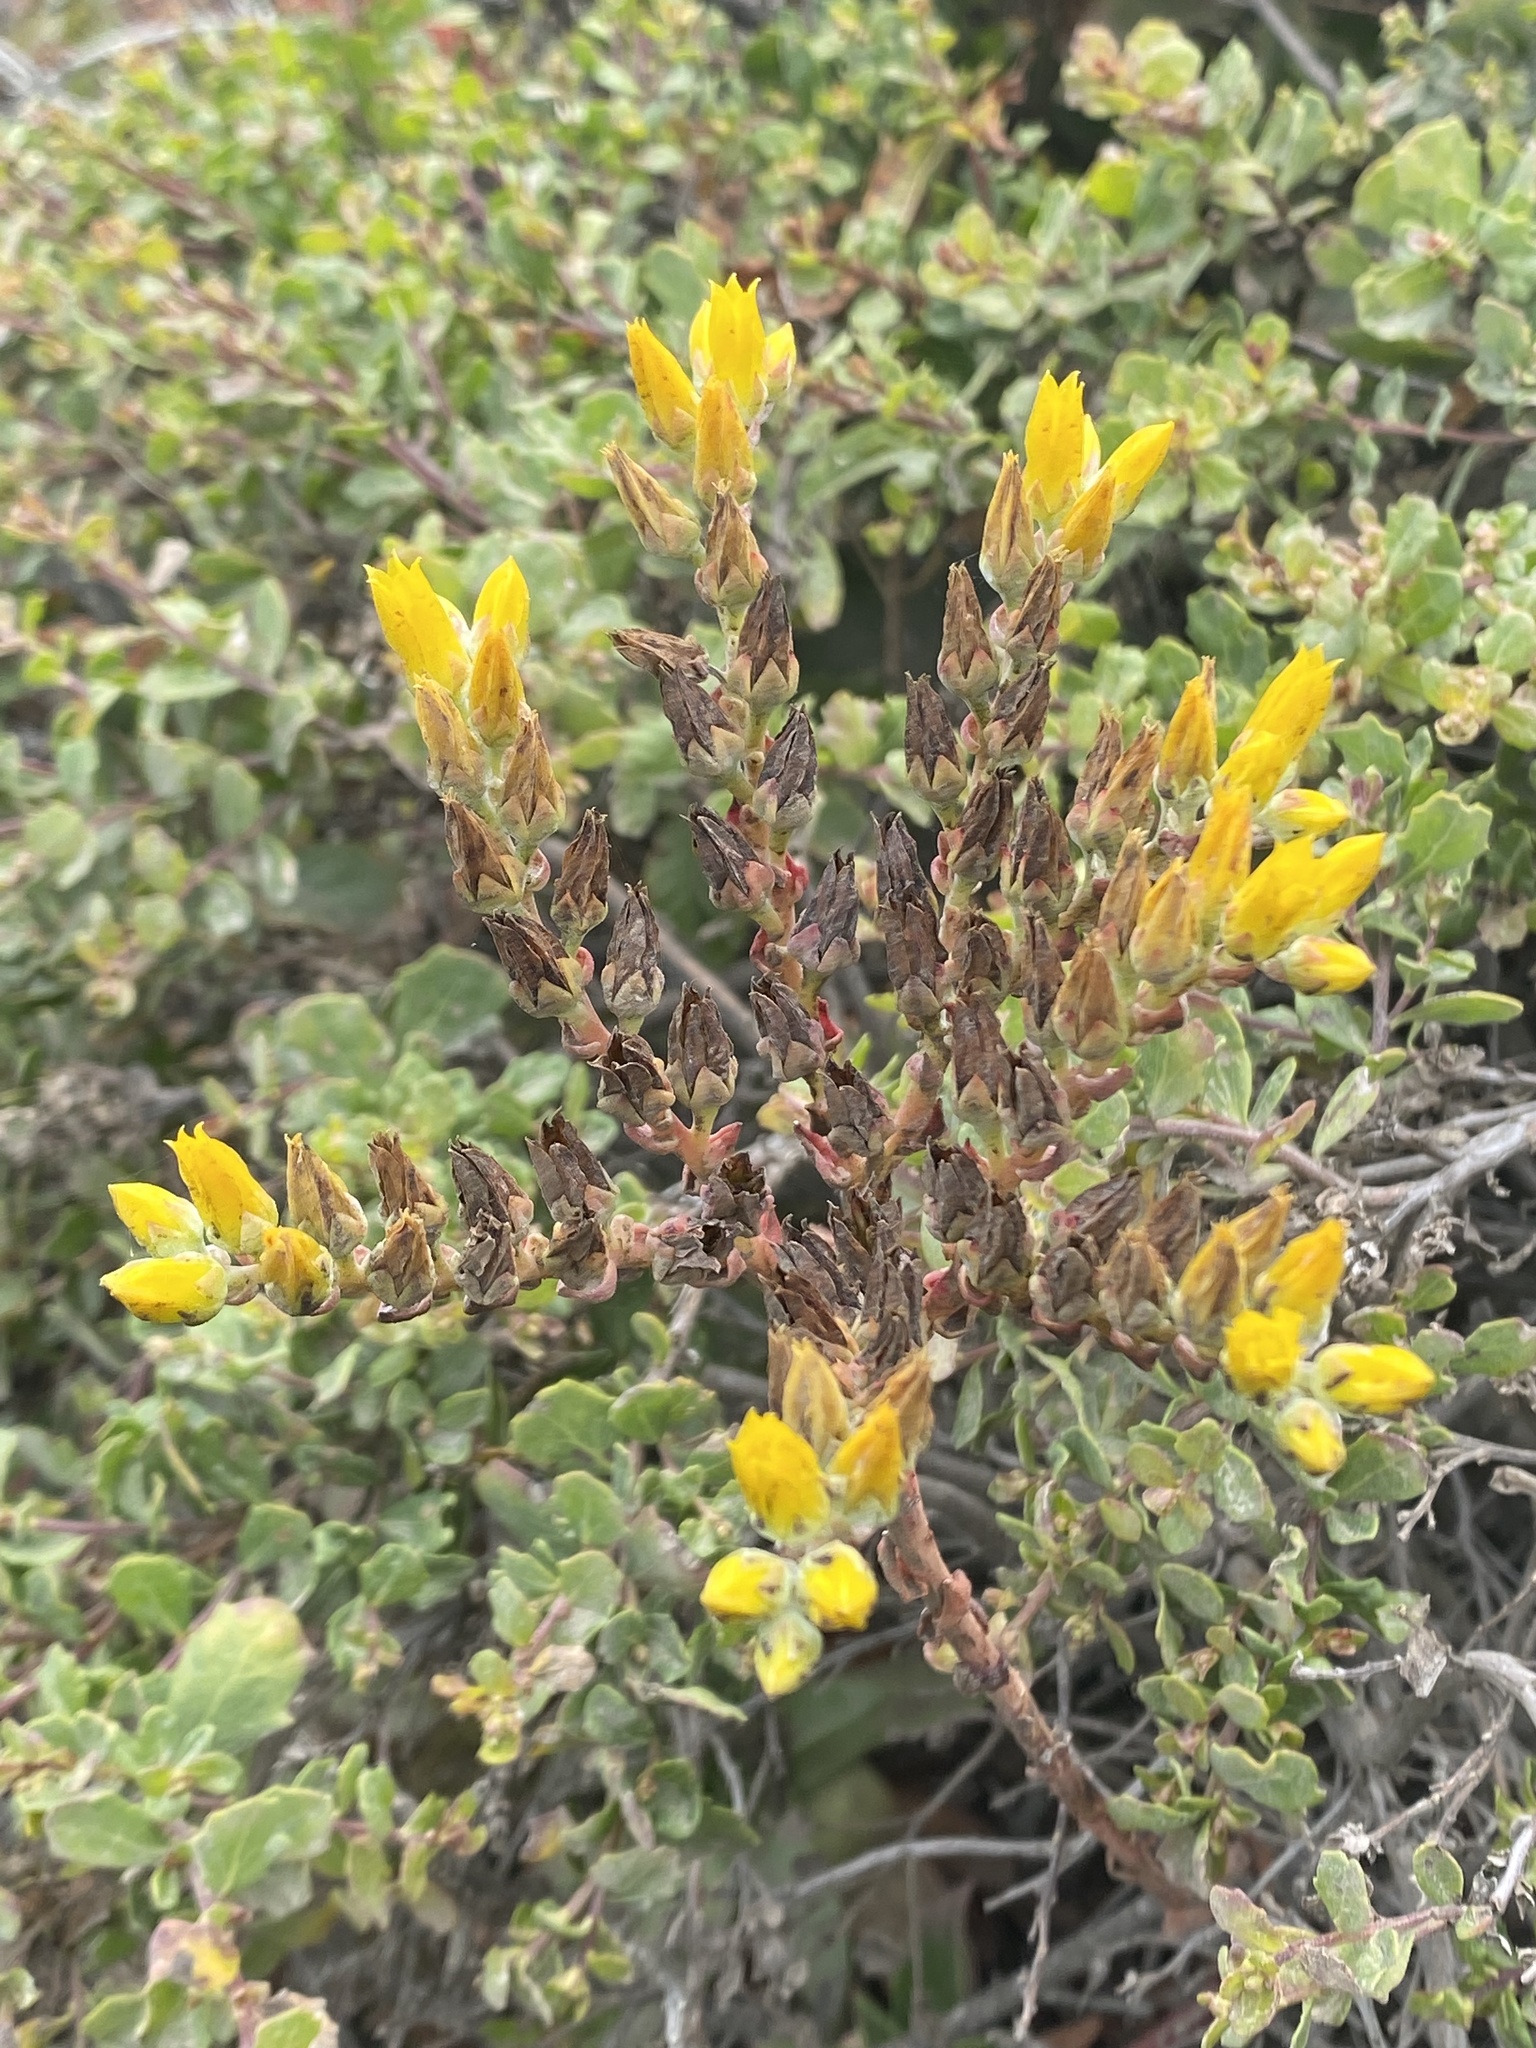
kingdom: Plantae
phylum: Tracheophyta
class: Magnoliopsida
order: Saxifragales
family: Crassulaceae
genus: Dudleya
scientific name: Dudleya caespitosa
